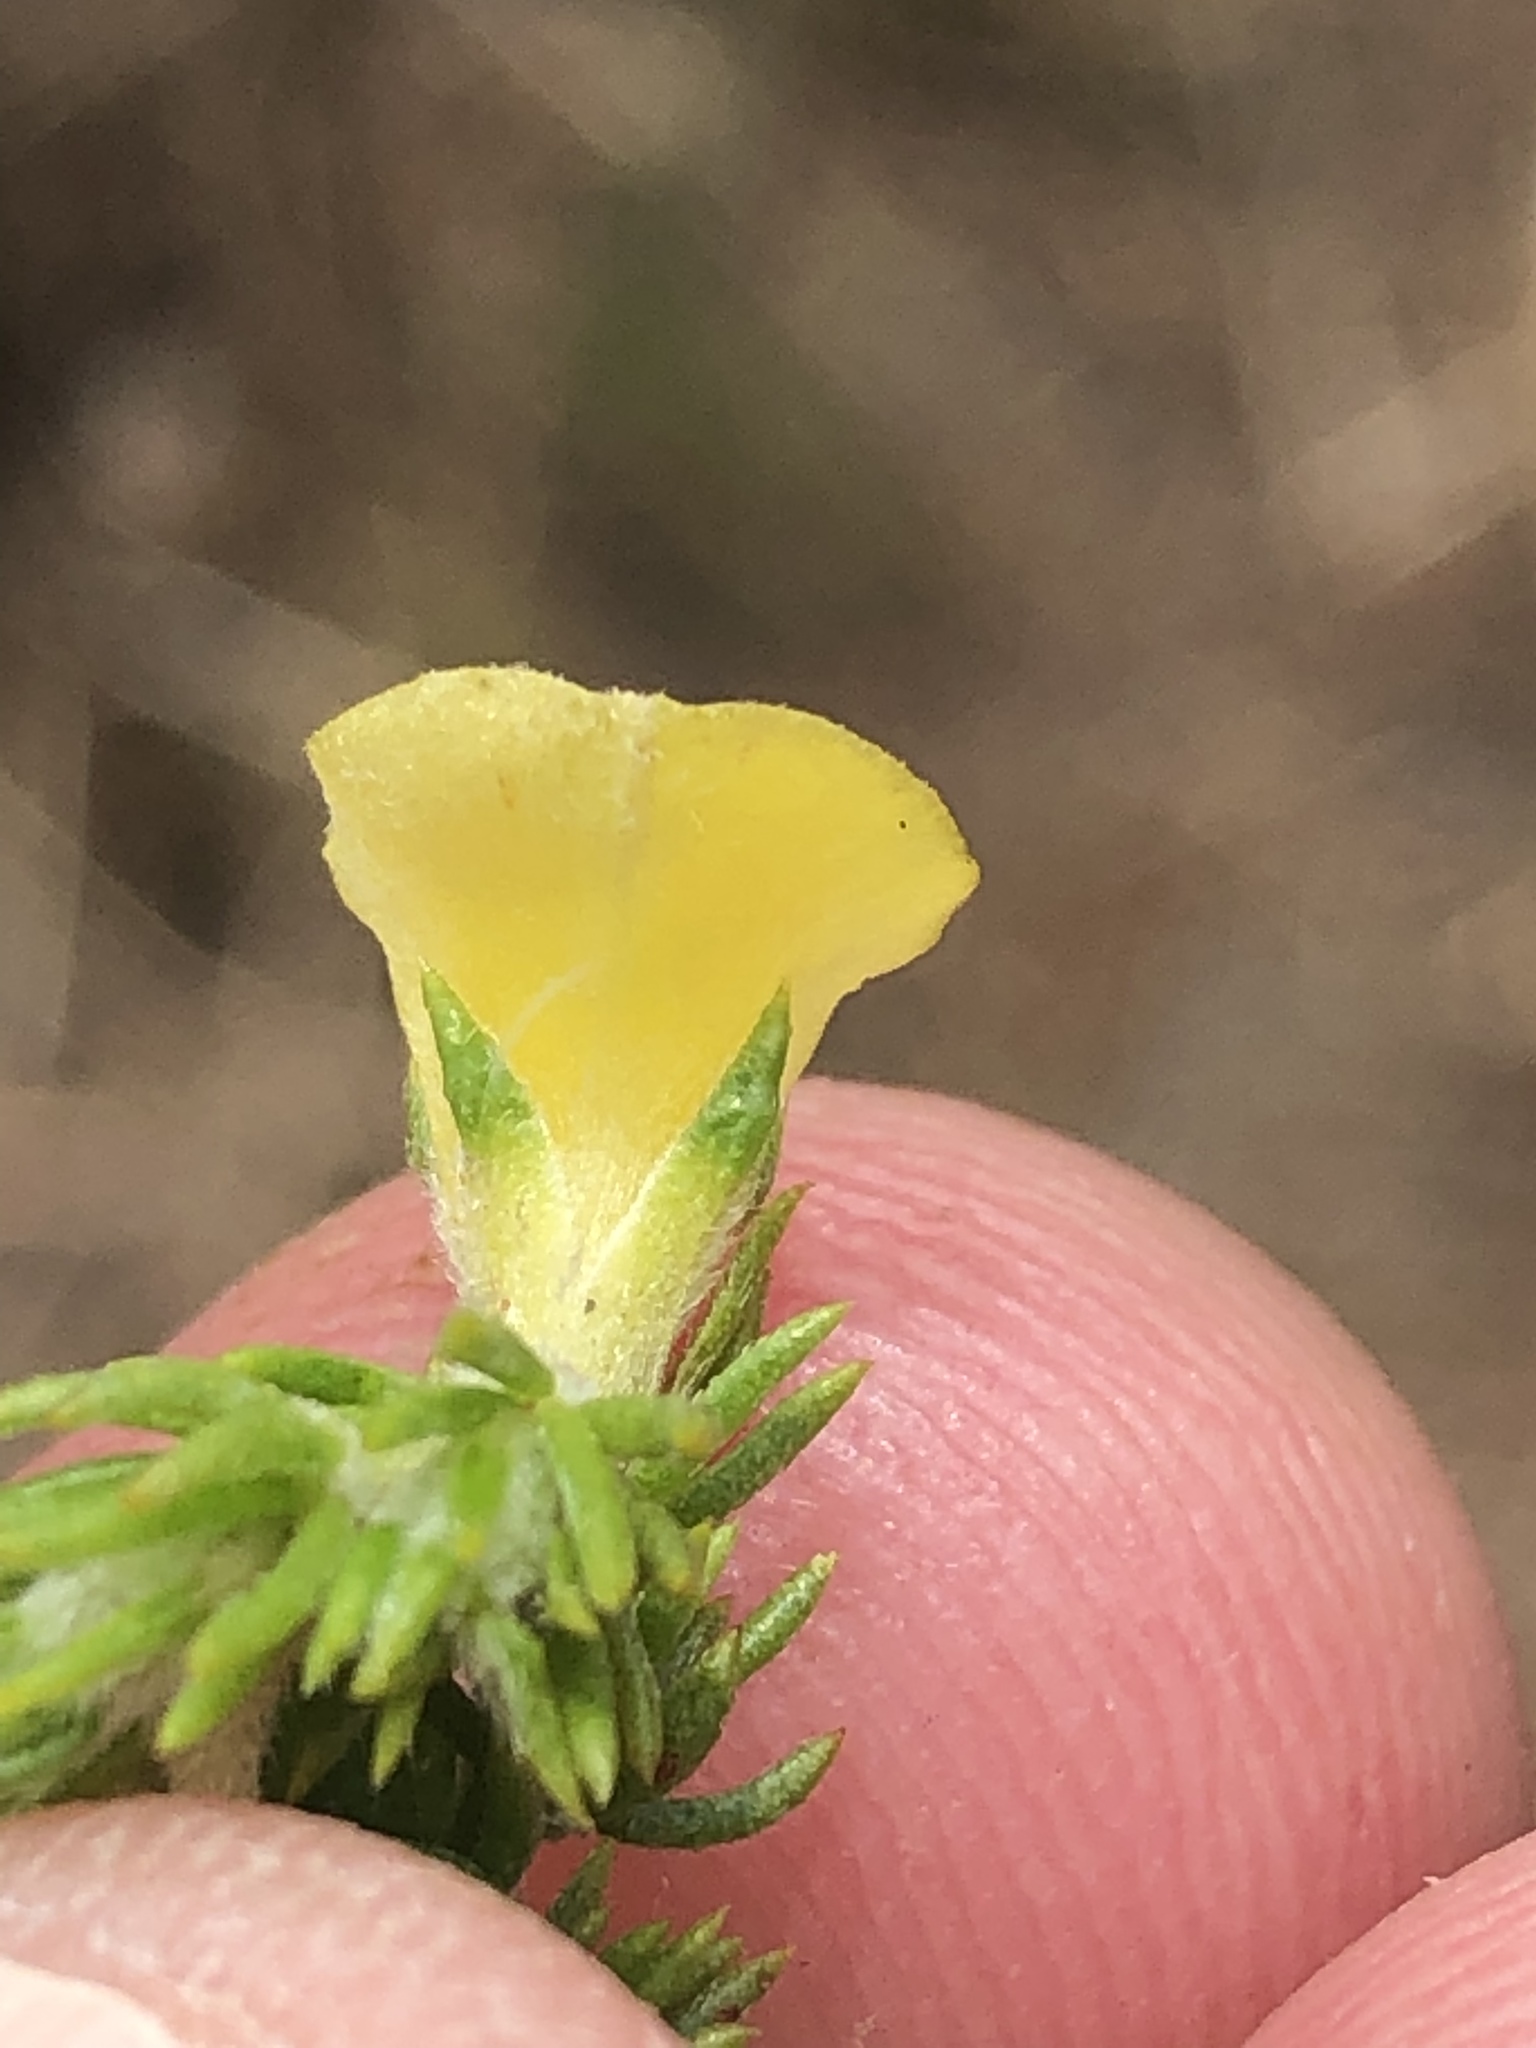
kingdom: Plantae
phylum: Tracheophyta
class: Magnoliopsida
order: Fabales
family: Fabaceae
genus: Aspalathus
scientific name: Aspalathus opaca
